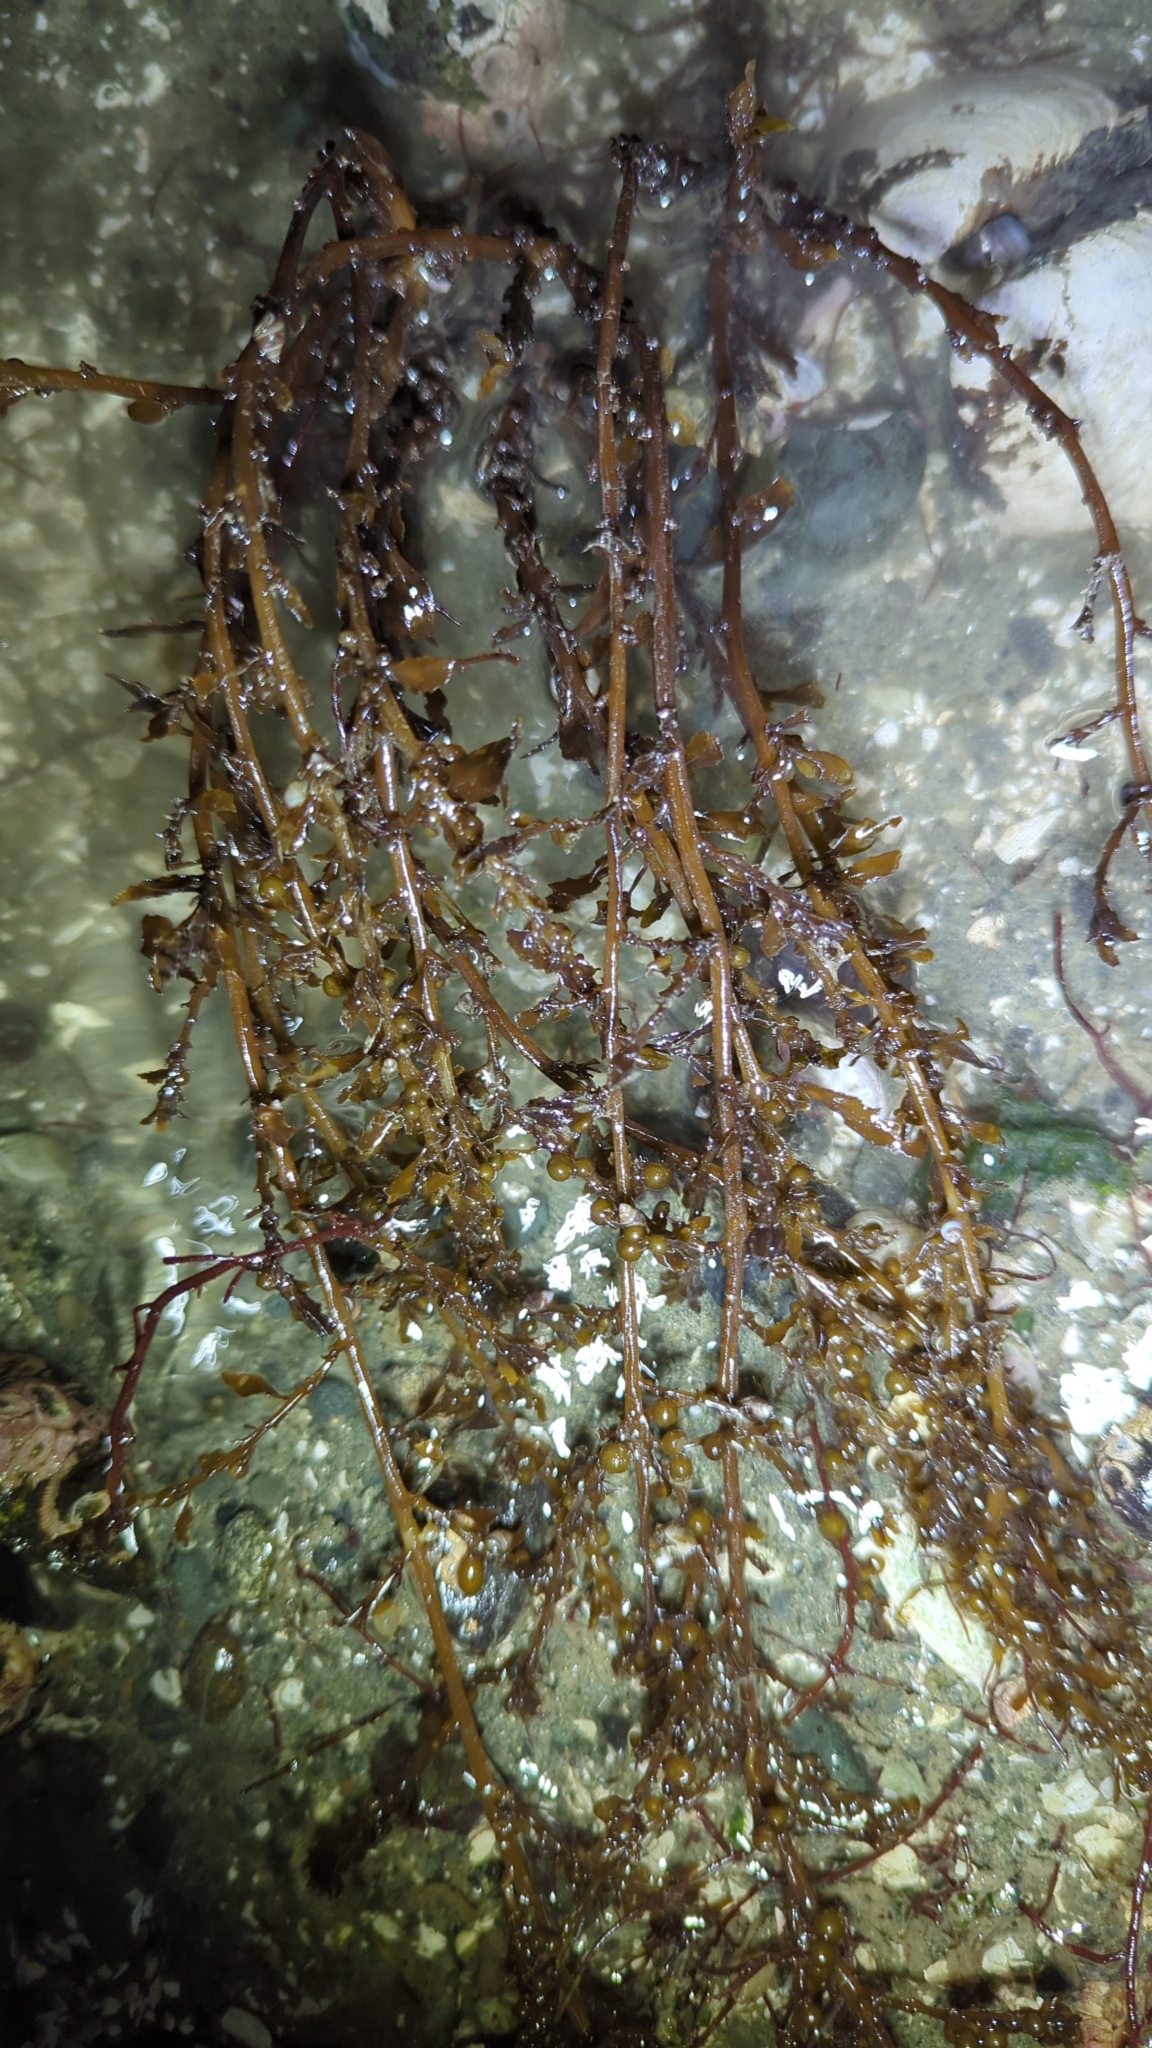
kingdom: Chromista
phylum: Ochrophyta
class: Phaeophyceae
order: Fucales
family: Sargassaceae
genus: Sargassum
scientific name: Sargassum muticum
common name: Japweed
